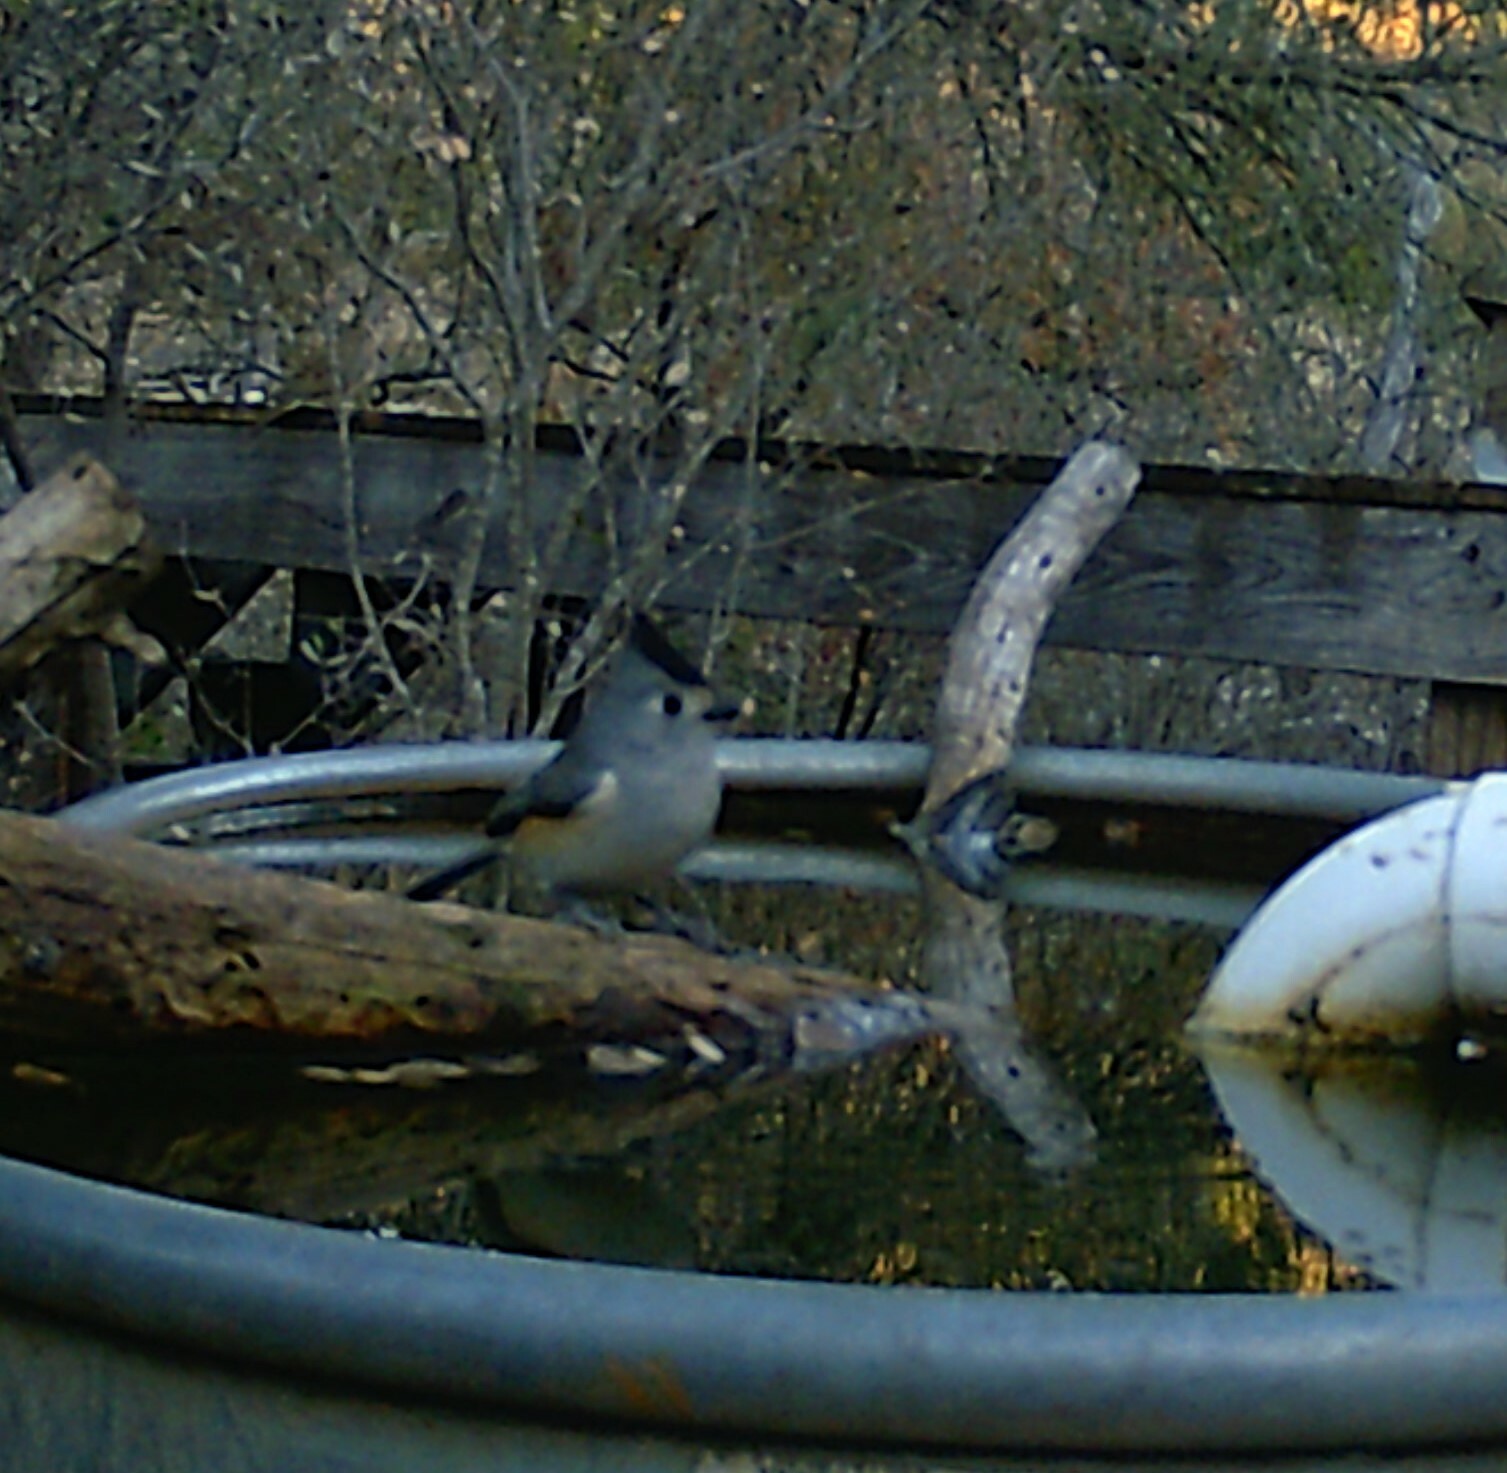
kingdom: Animalia
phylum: Chordata
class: Aves
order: Passeriformes
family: Paridae
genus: Baeolophus
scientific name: Baeolophus atricristatus
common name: Black-crested titmouse
